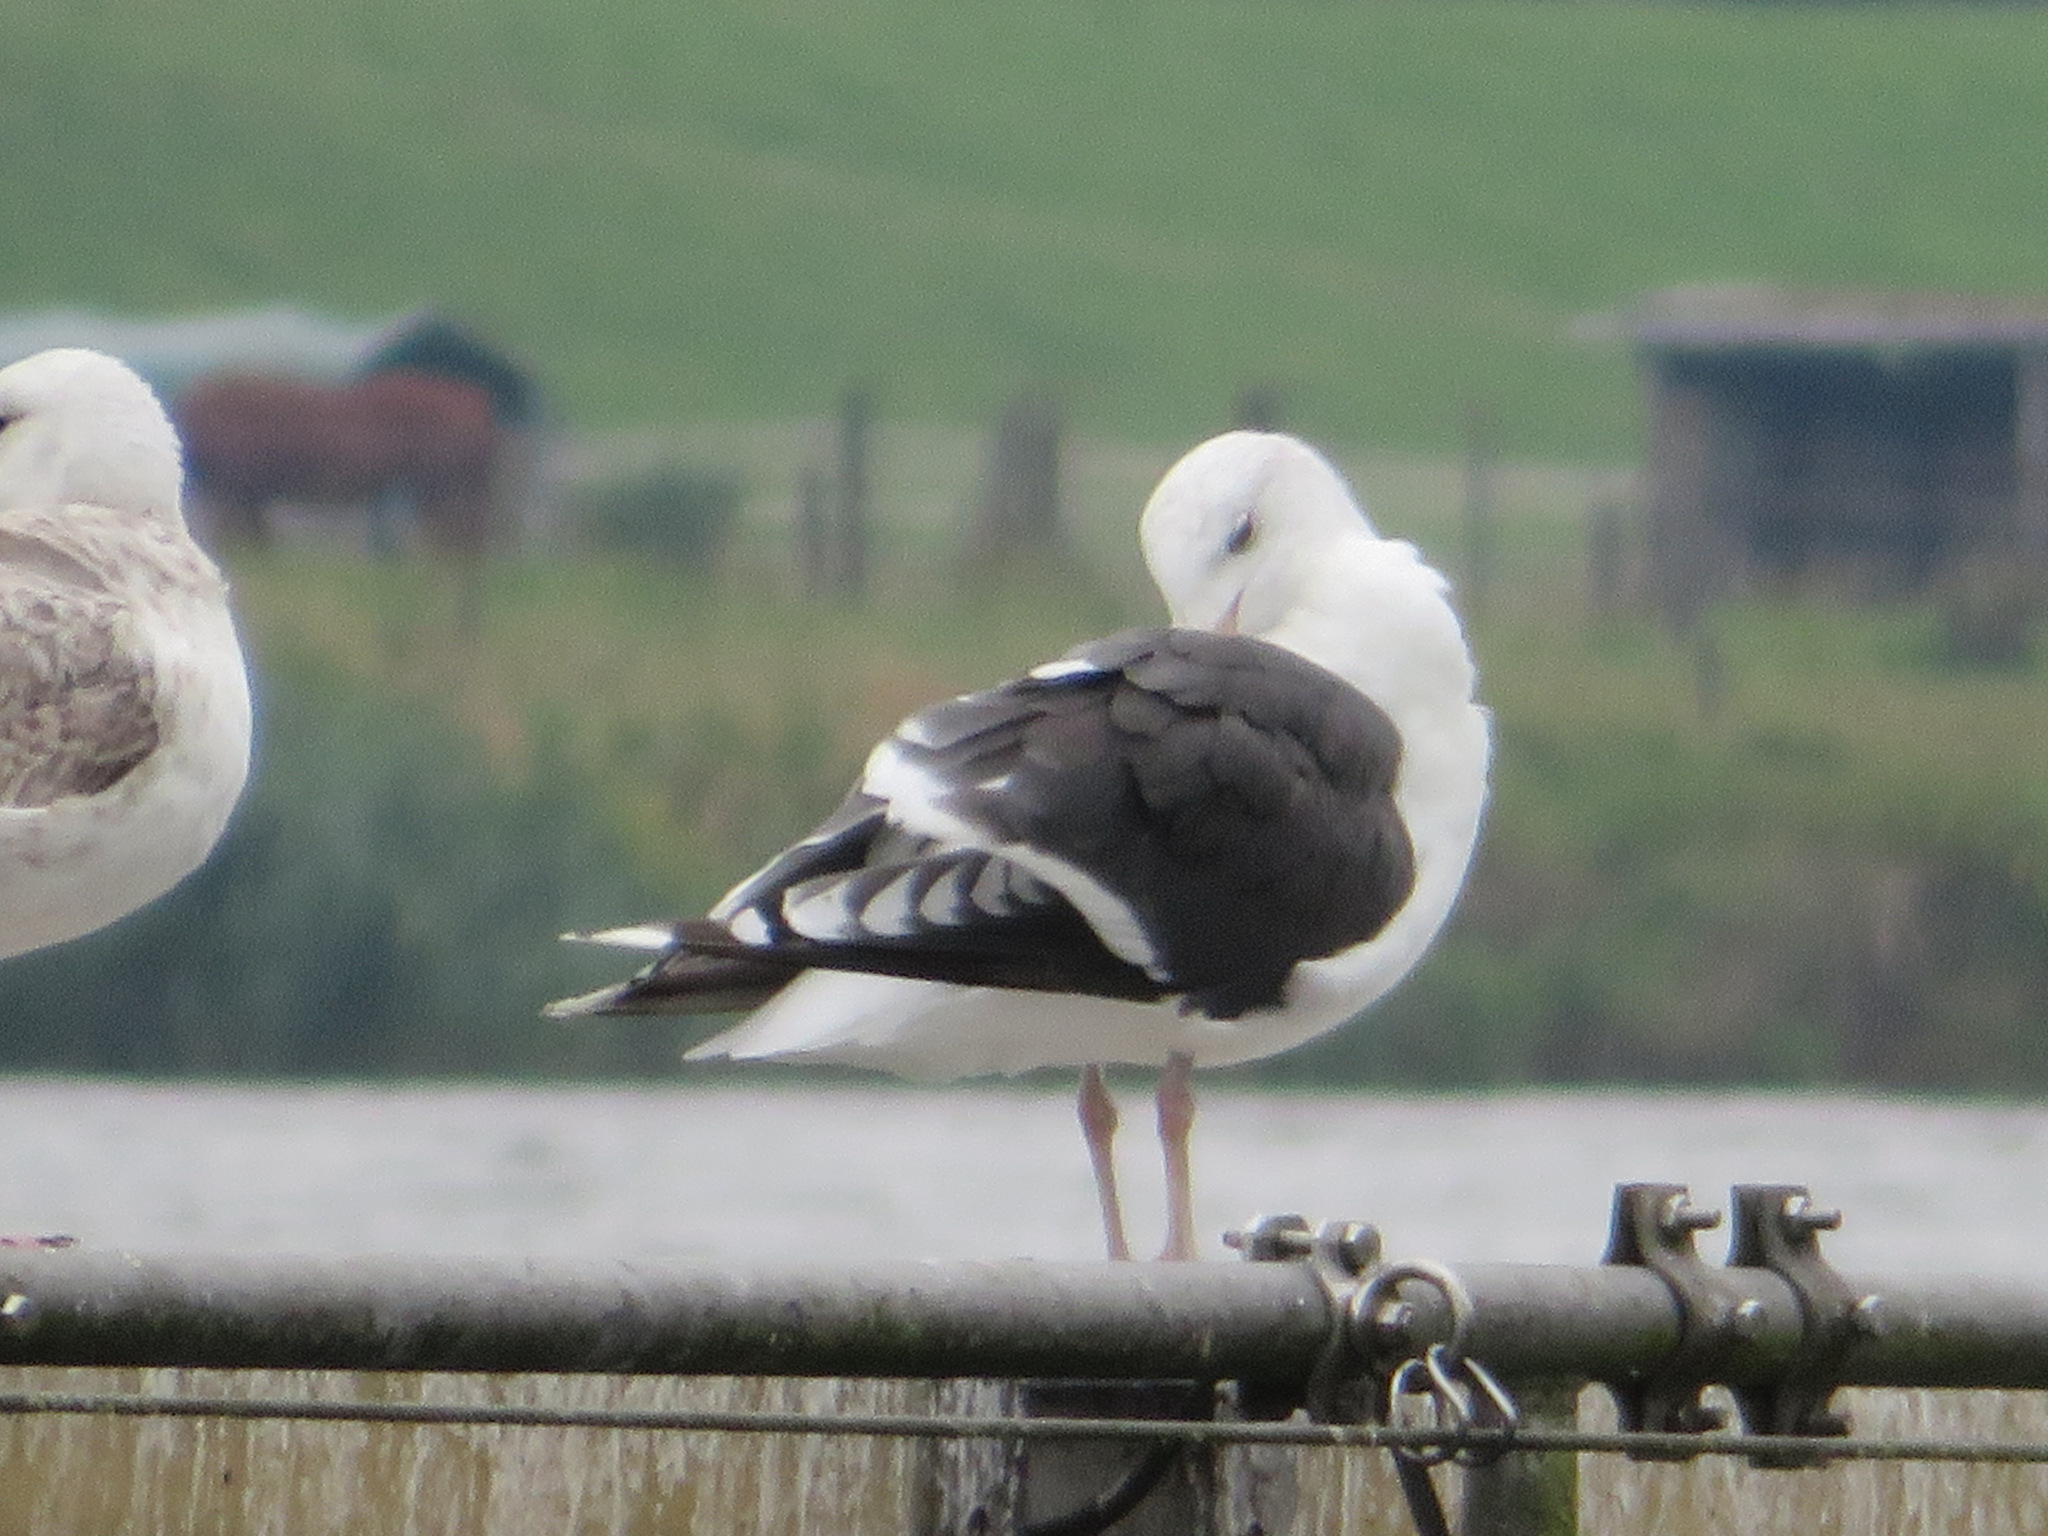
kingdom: Animalia
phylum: Chordata
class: Aves
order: Charadriiformes
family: Laridae
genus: Larus
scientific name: Larus marinus
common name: Great black-backed gull
